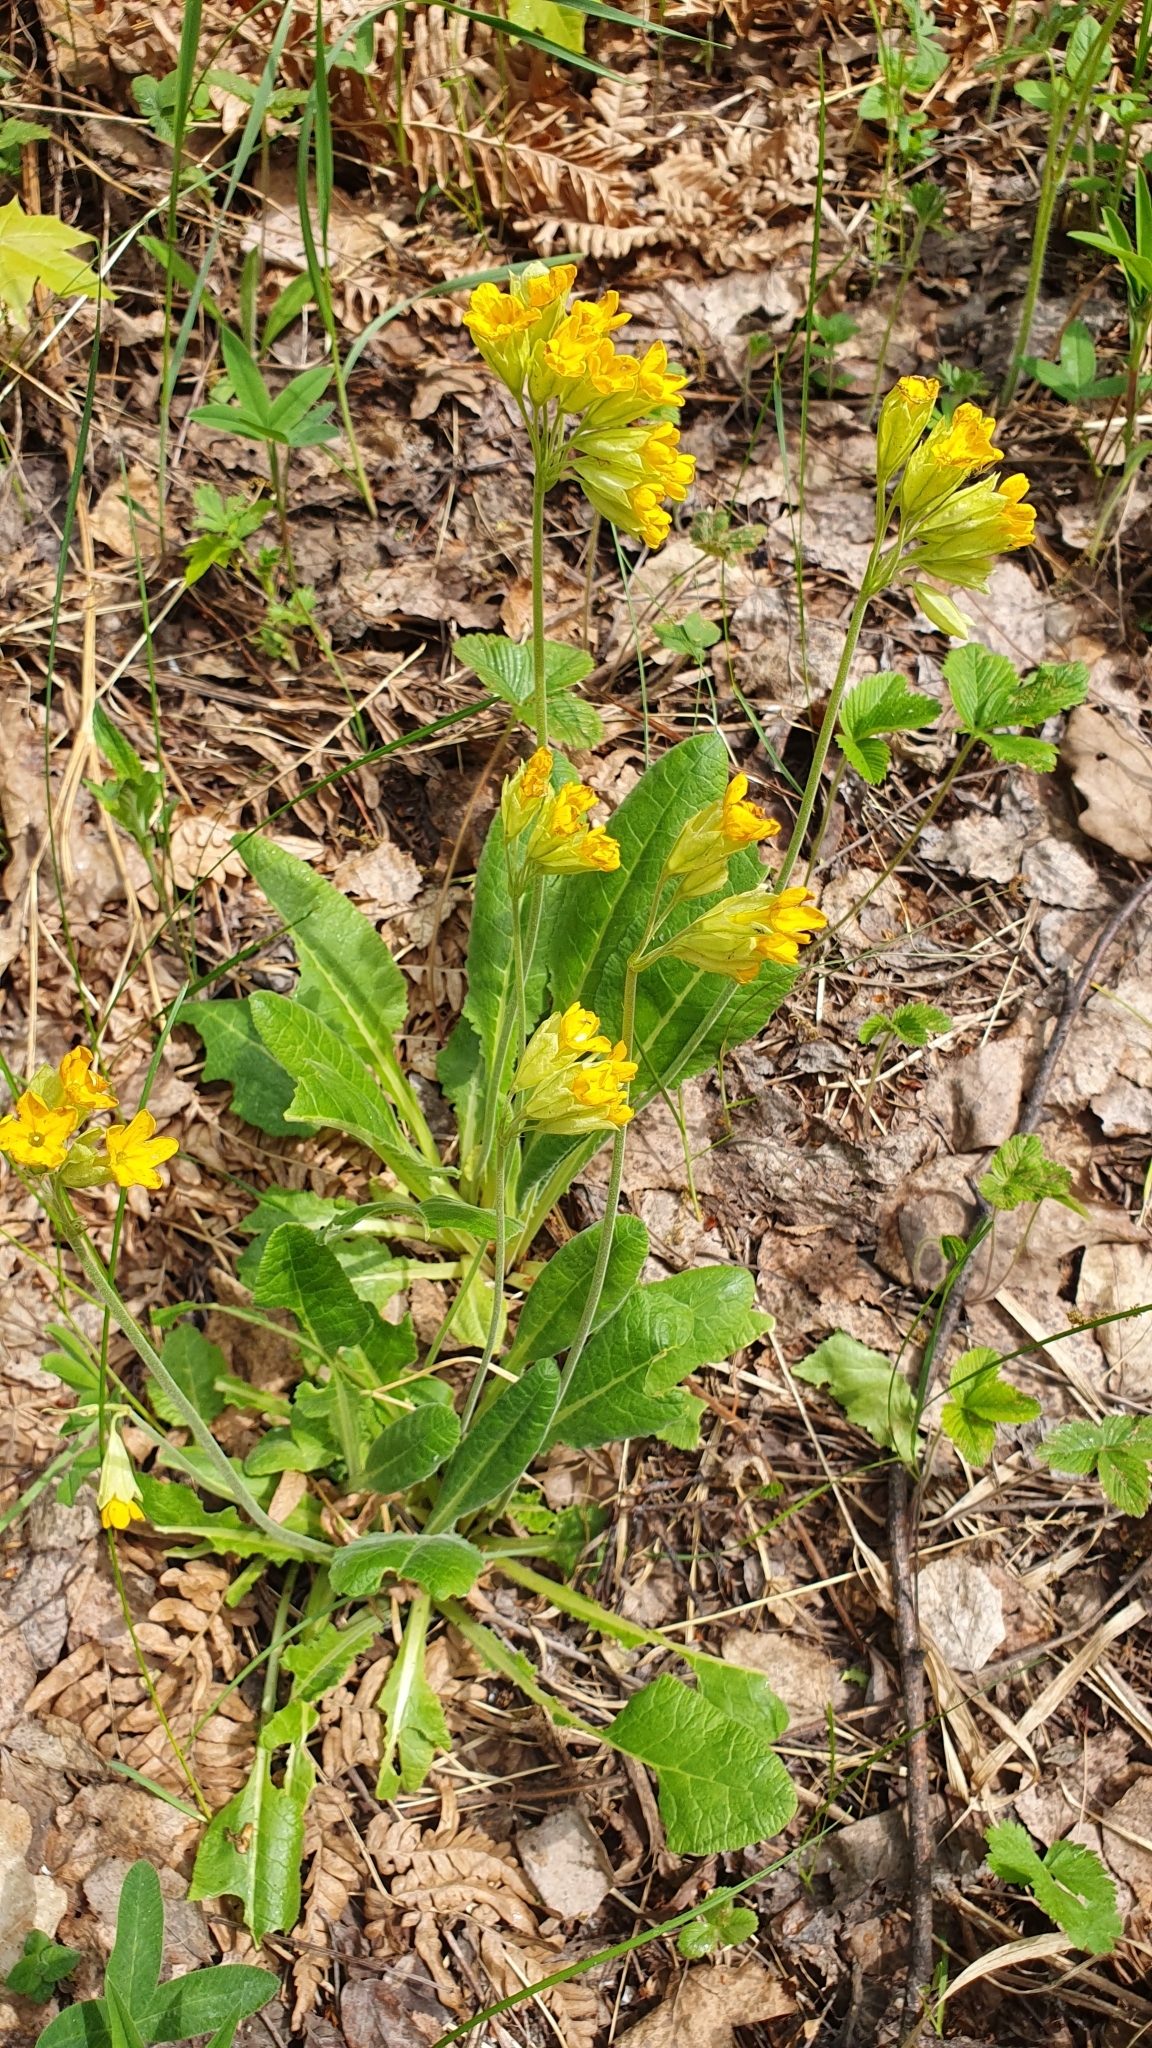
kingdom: Plantae
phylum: Tracheophyta
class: Magnoliopsida
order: Ericales
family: Primulaceae
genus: Primula
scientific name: Primula veris
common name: Cowslip
